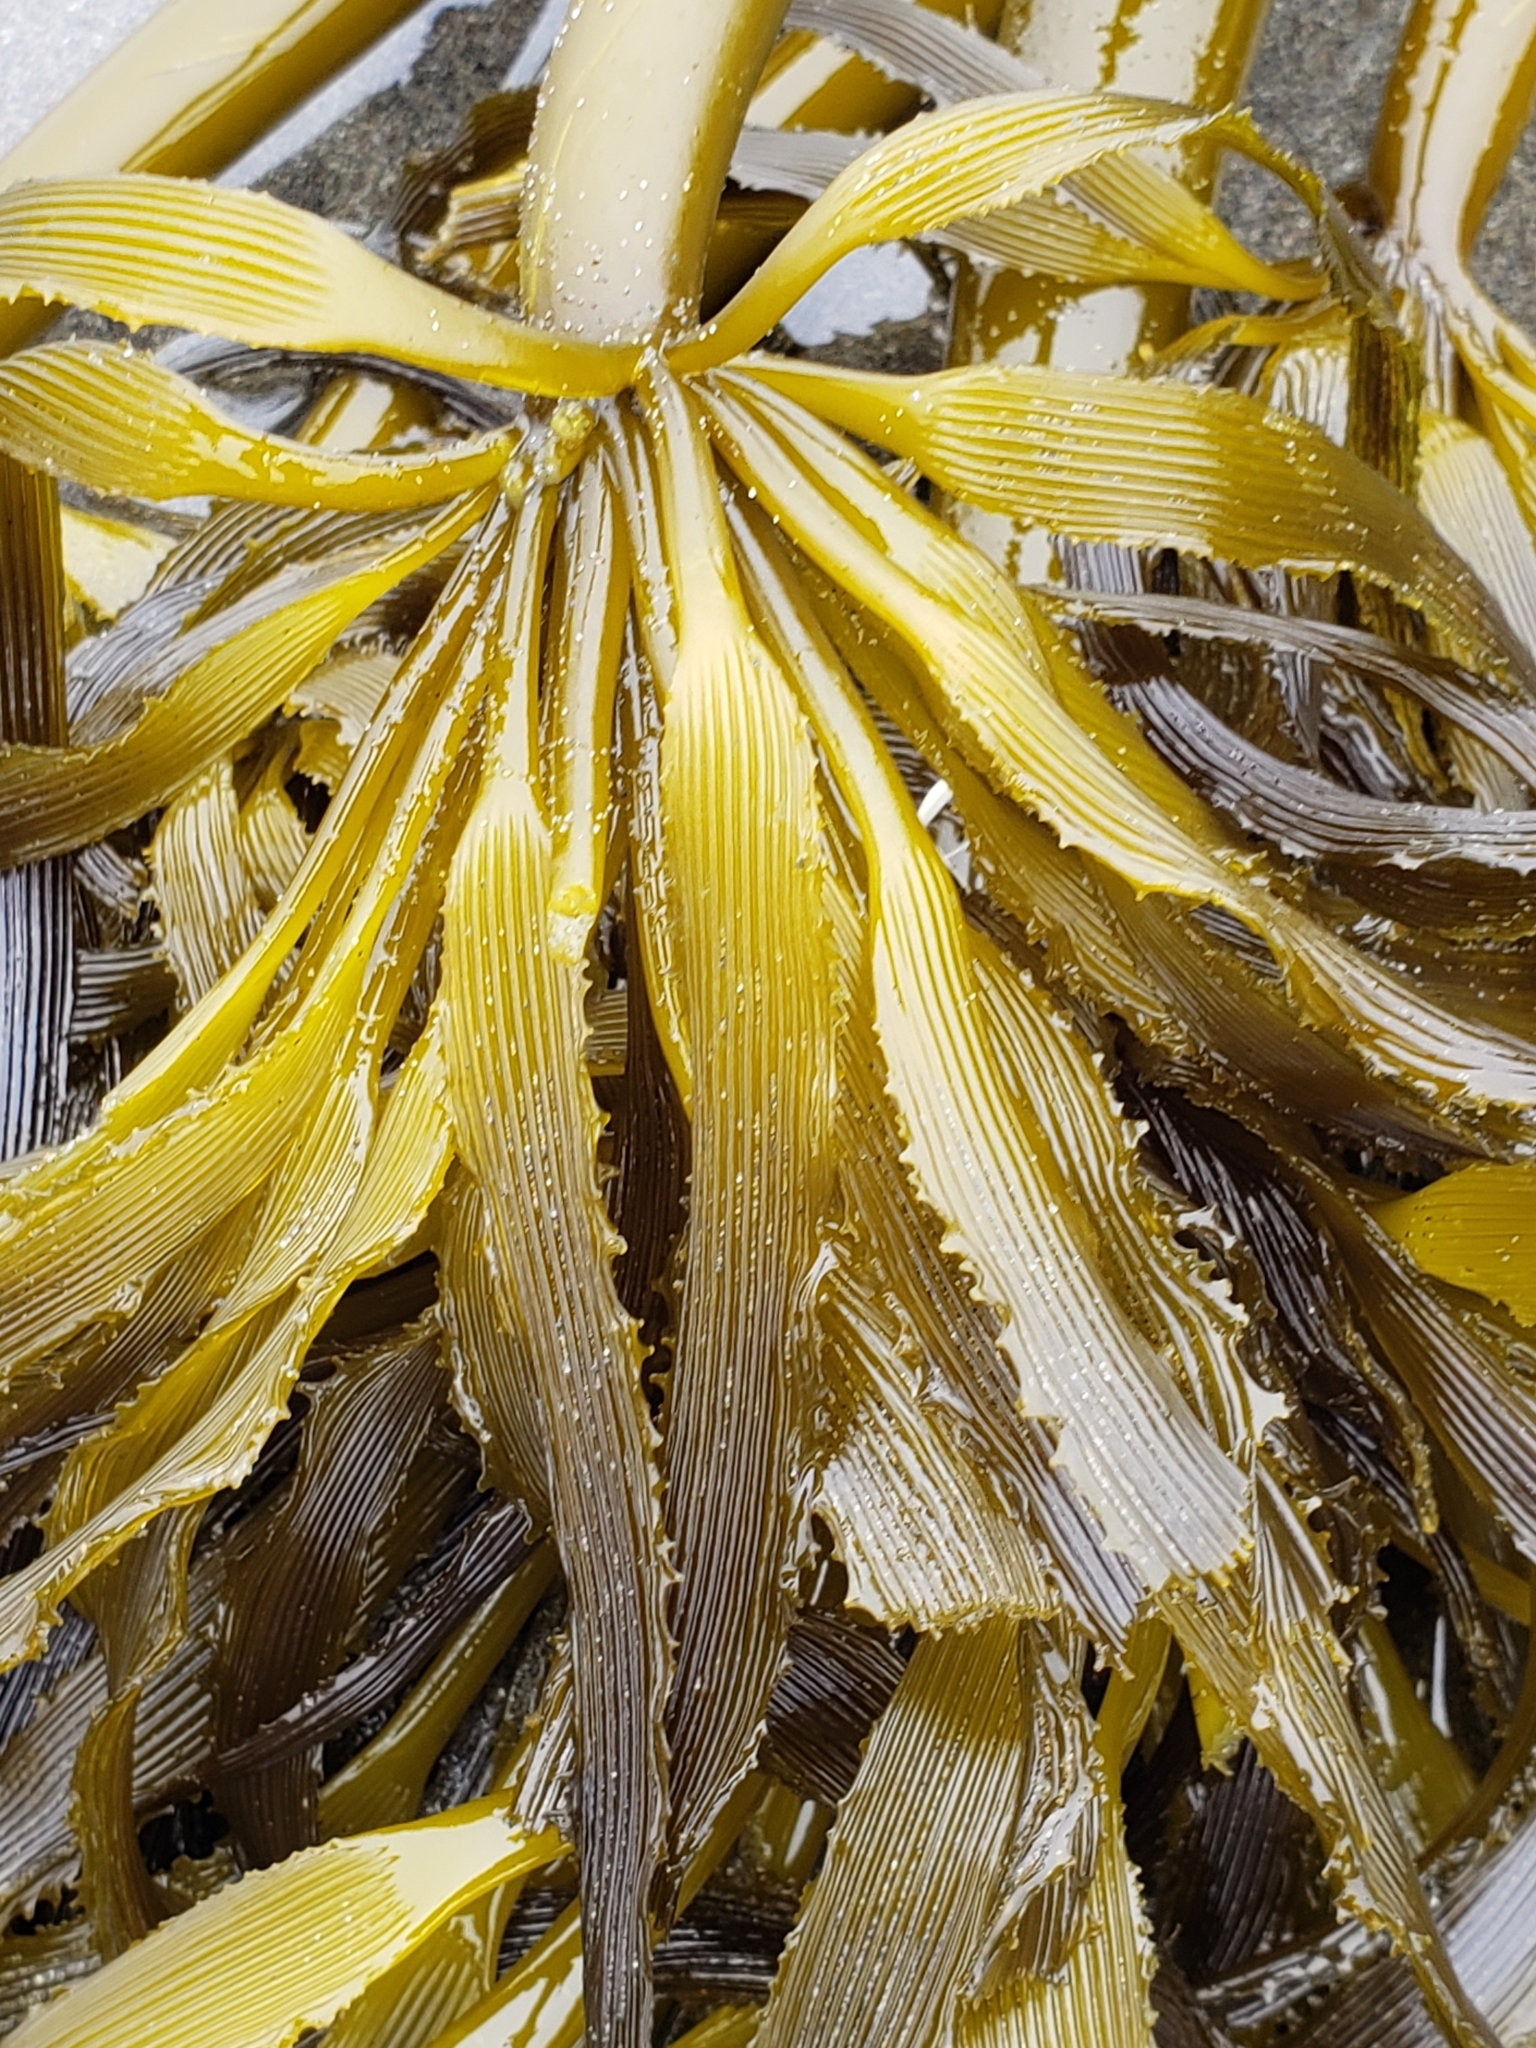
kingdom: Chromista
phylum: Ochrophyta
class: Phaeophyceae
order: Laminariales
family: Laminariaceae
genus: Postelsia
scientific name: Postelsia palmiformis
